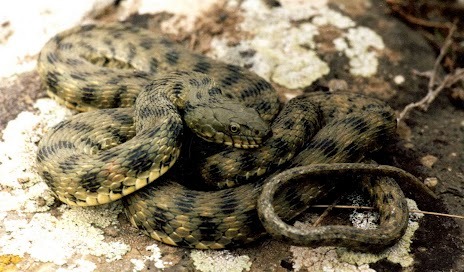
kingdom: Animalia
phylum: Chordata
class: Squamata
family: Colubridae
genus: Natrix
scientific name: Natrix tessellata
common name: Dice snake
